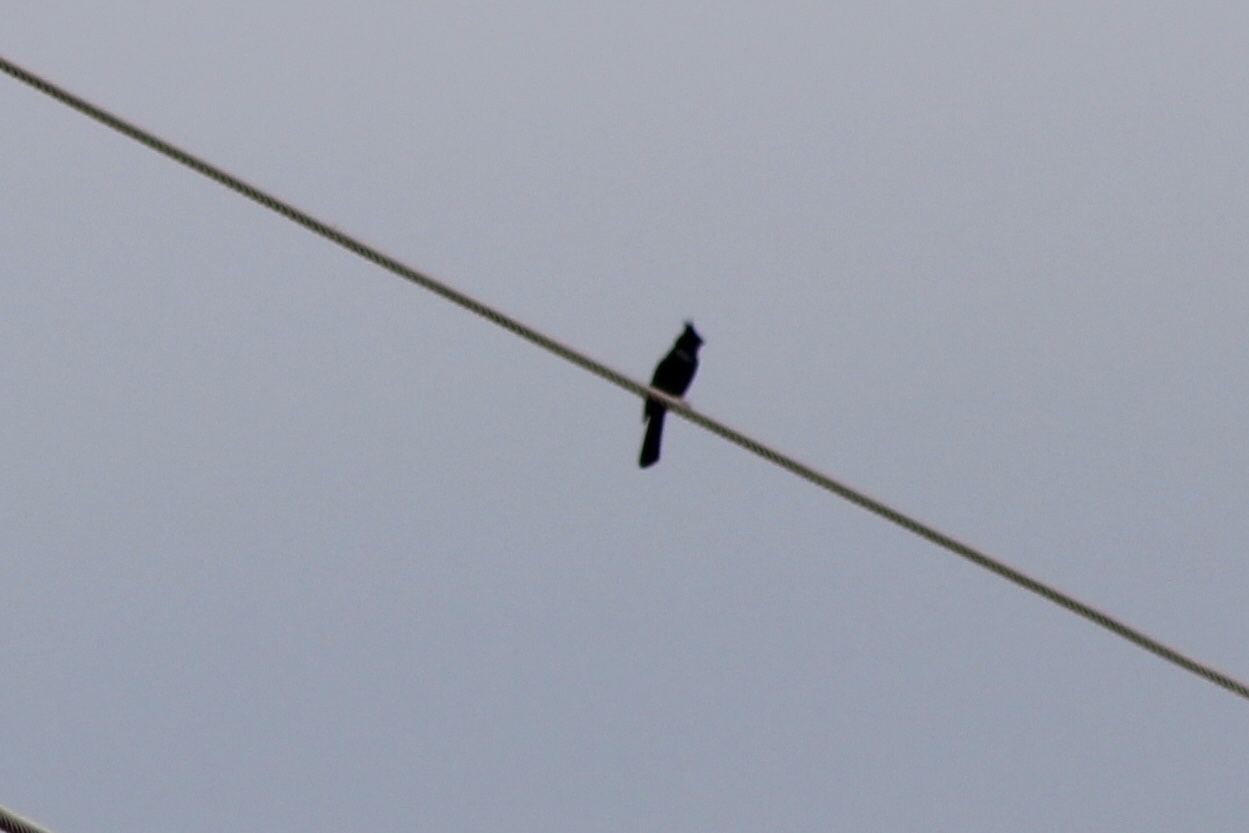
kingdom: Animalia
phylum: Chordata
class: Aves
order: Passeriformes
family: Ptilogonatidae
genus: Phainopepla
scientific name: Phainopepla nitens
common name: Phainopepla
